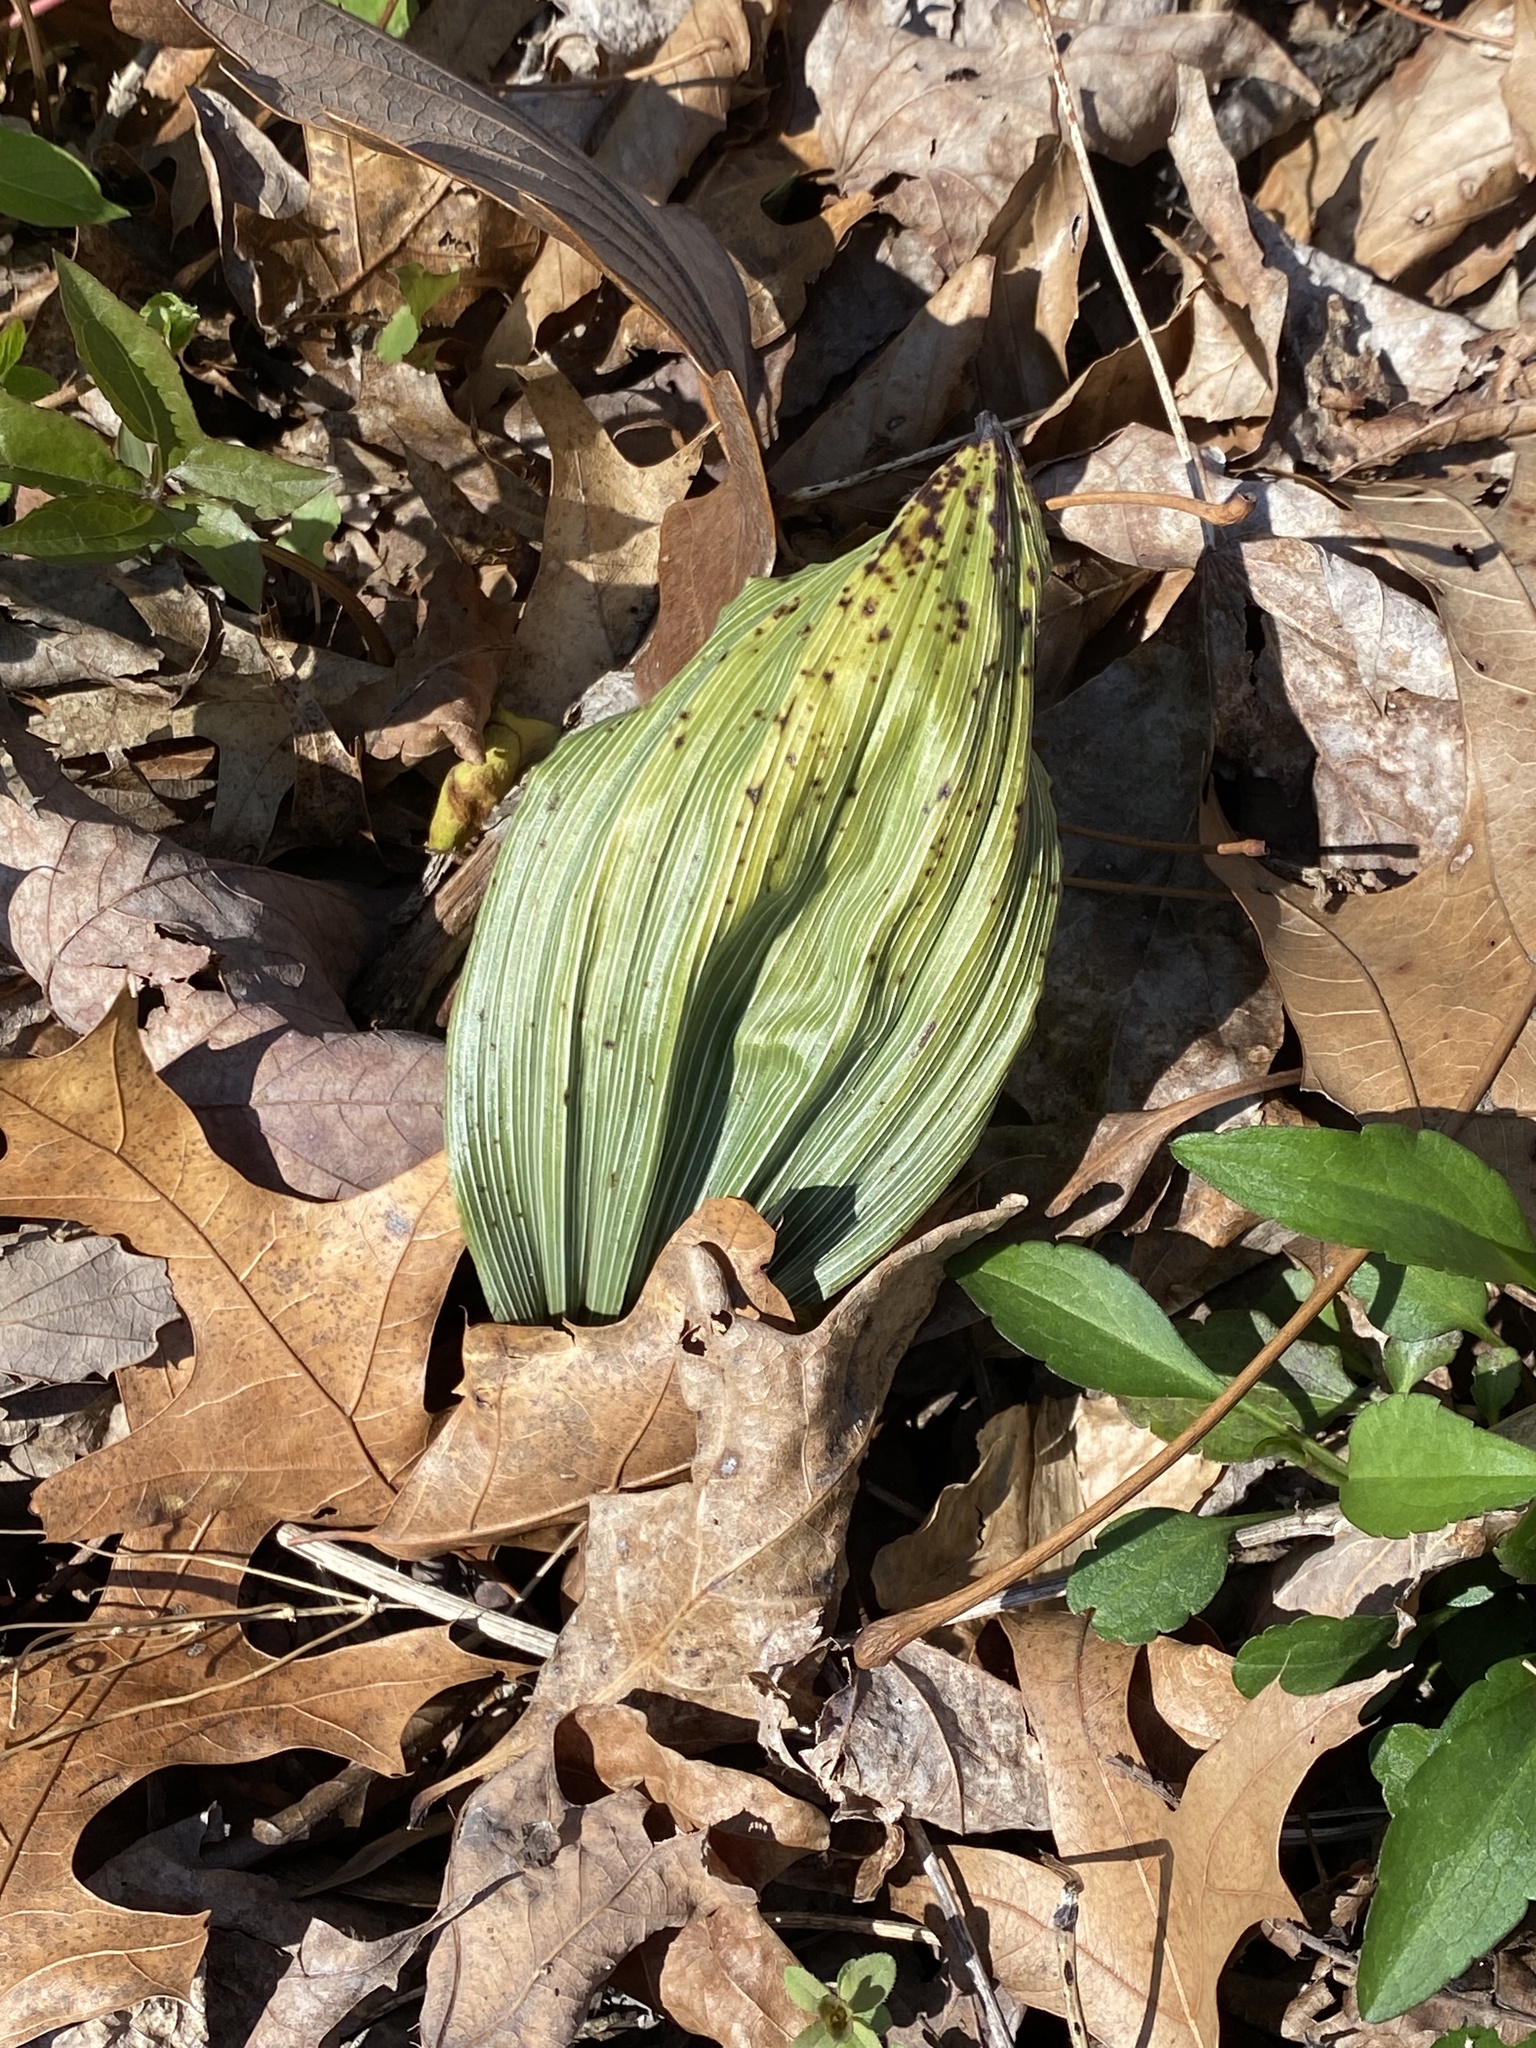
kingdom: Plantae
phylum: Tracheophyta
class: Liliopsida
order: Asparagales
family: Orchidaceae
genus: Aplectrum
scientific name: Aplectrum hyemale
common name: Adam-and-eve
